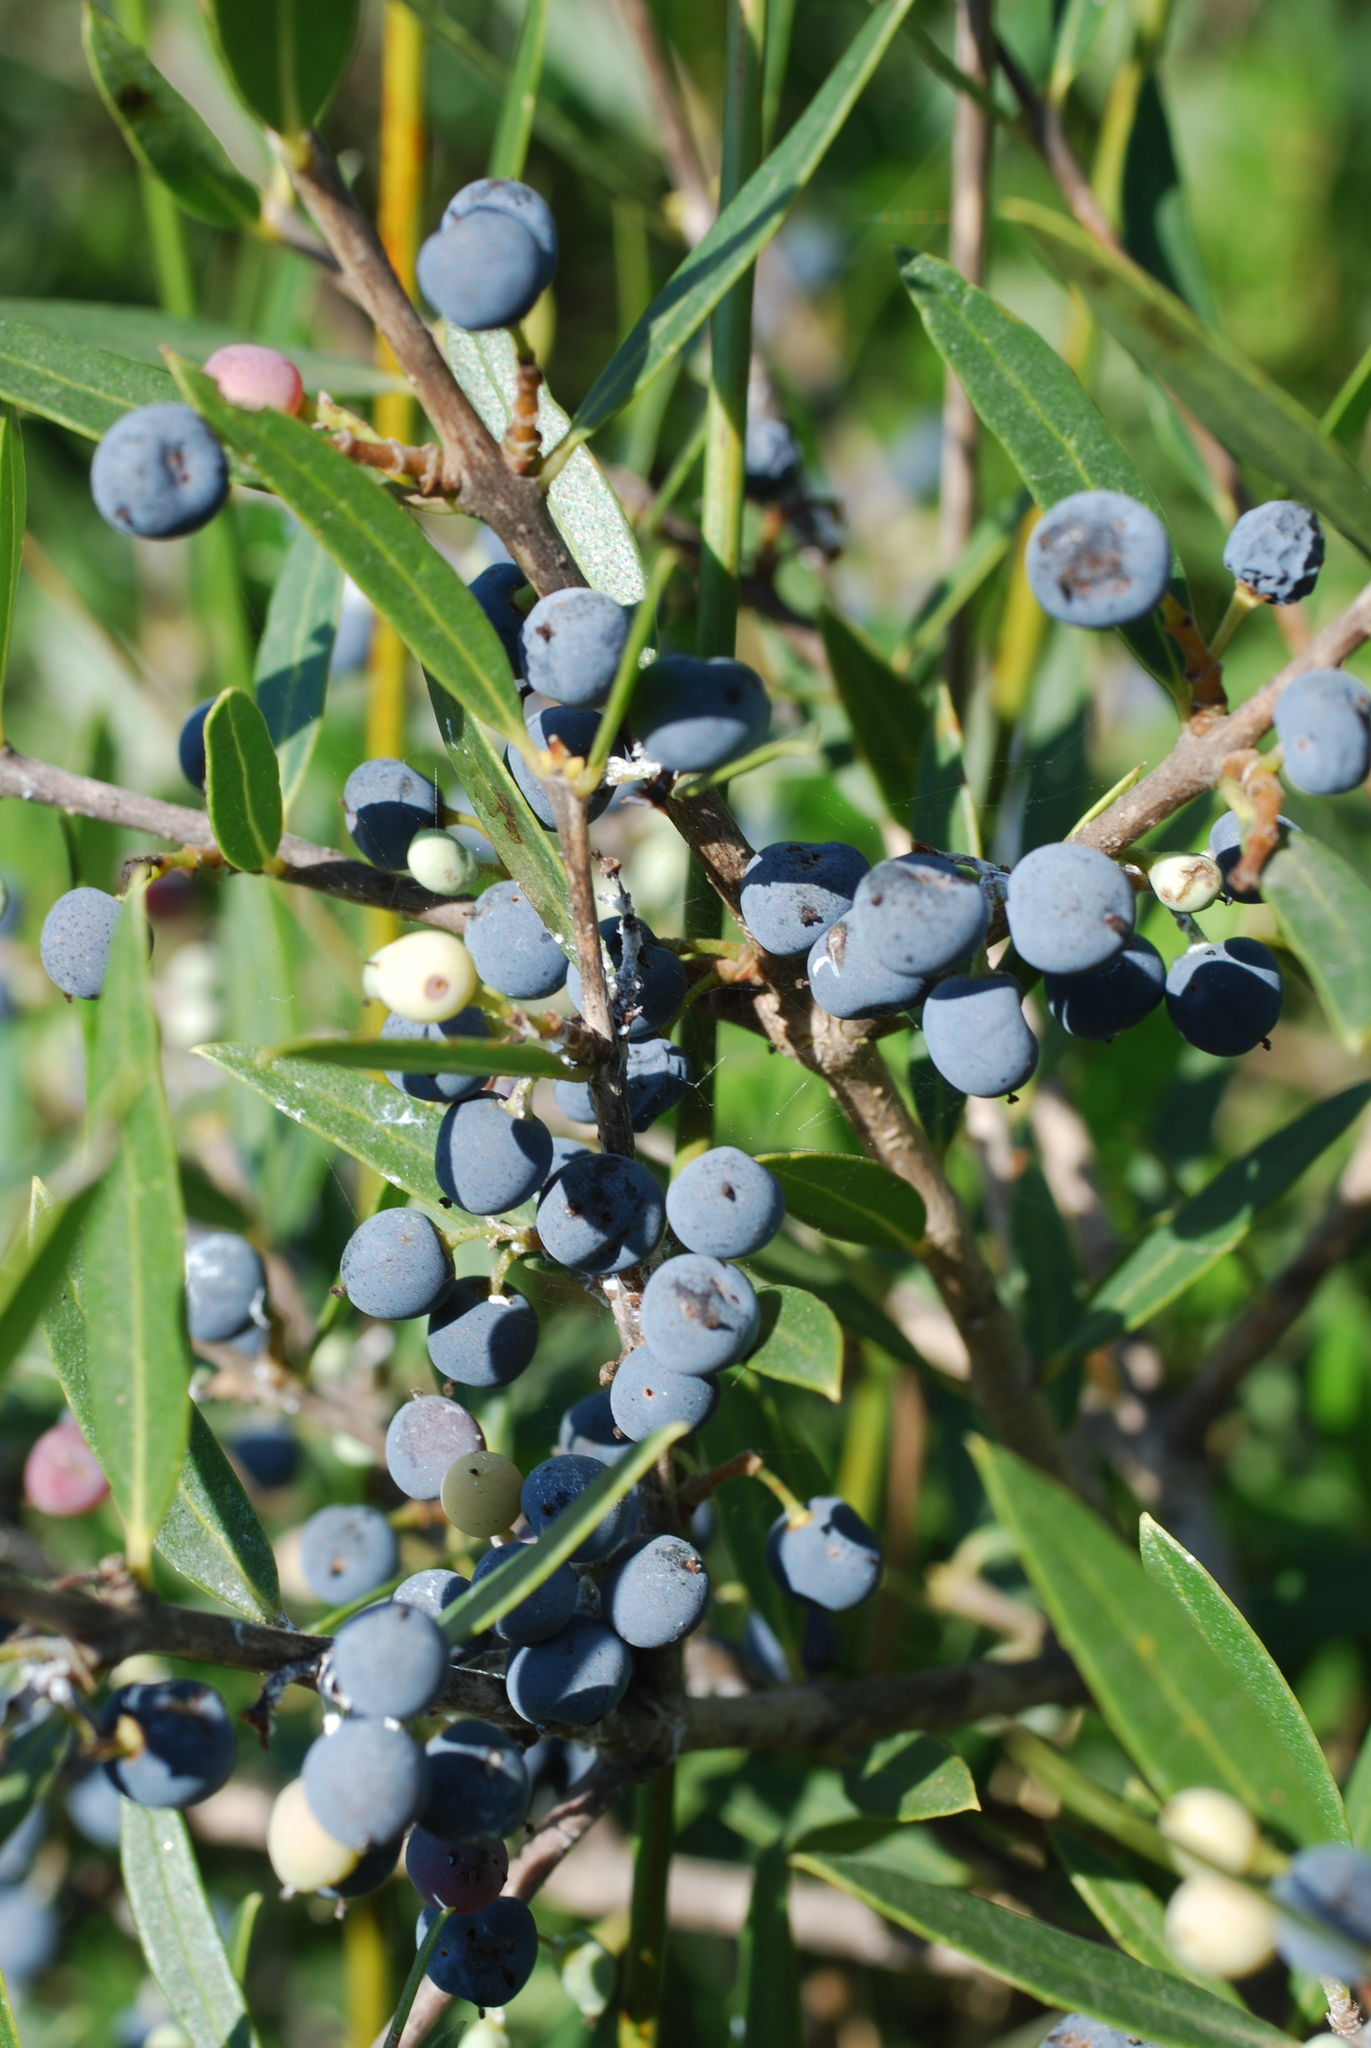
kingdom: Plantae
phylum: Tracheophyta
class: Magnoliopsida
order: Lamiales
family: Oleaceae
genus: Phillyrea
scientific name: Phillyrea angustifolia
